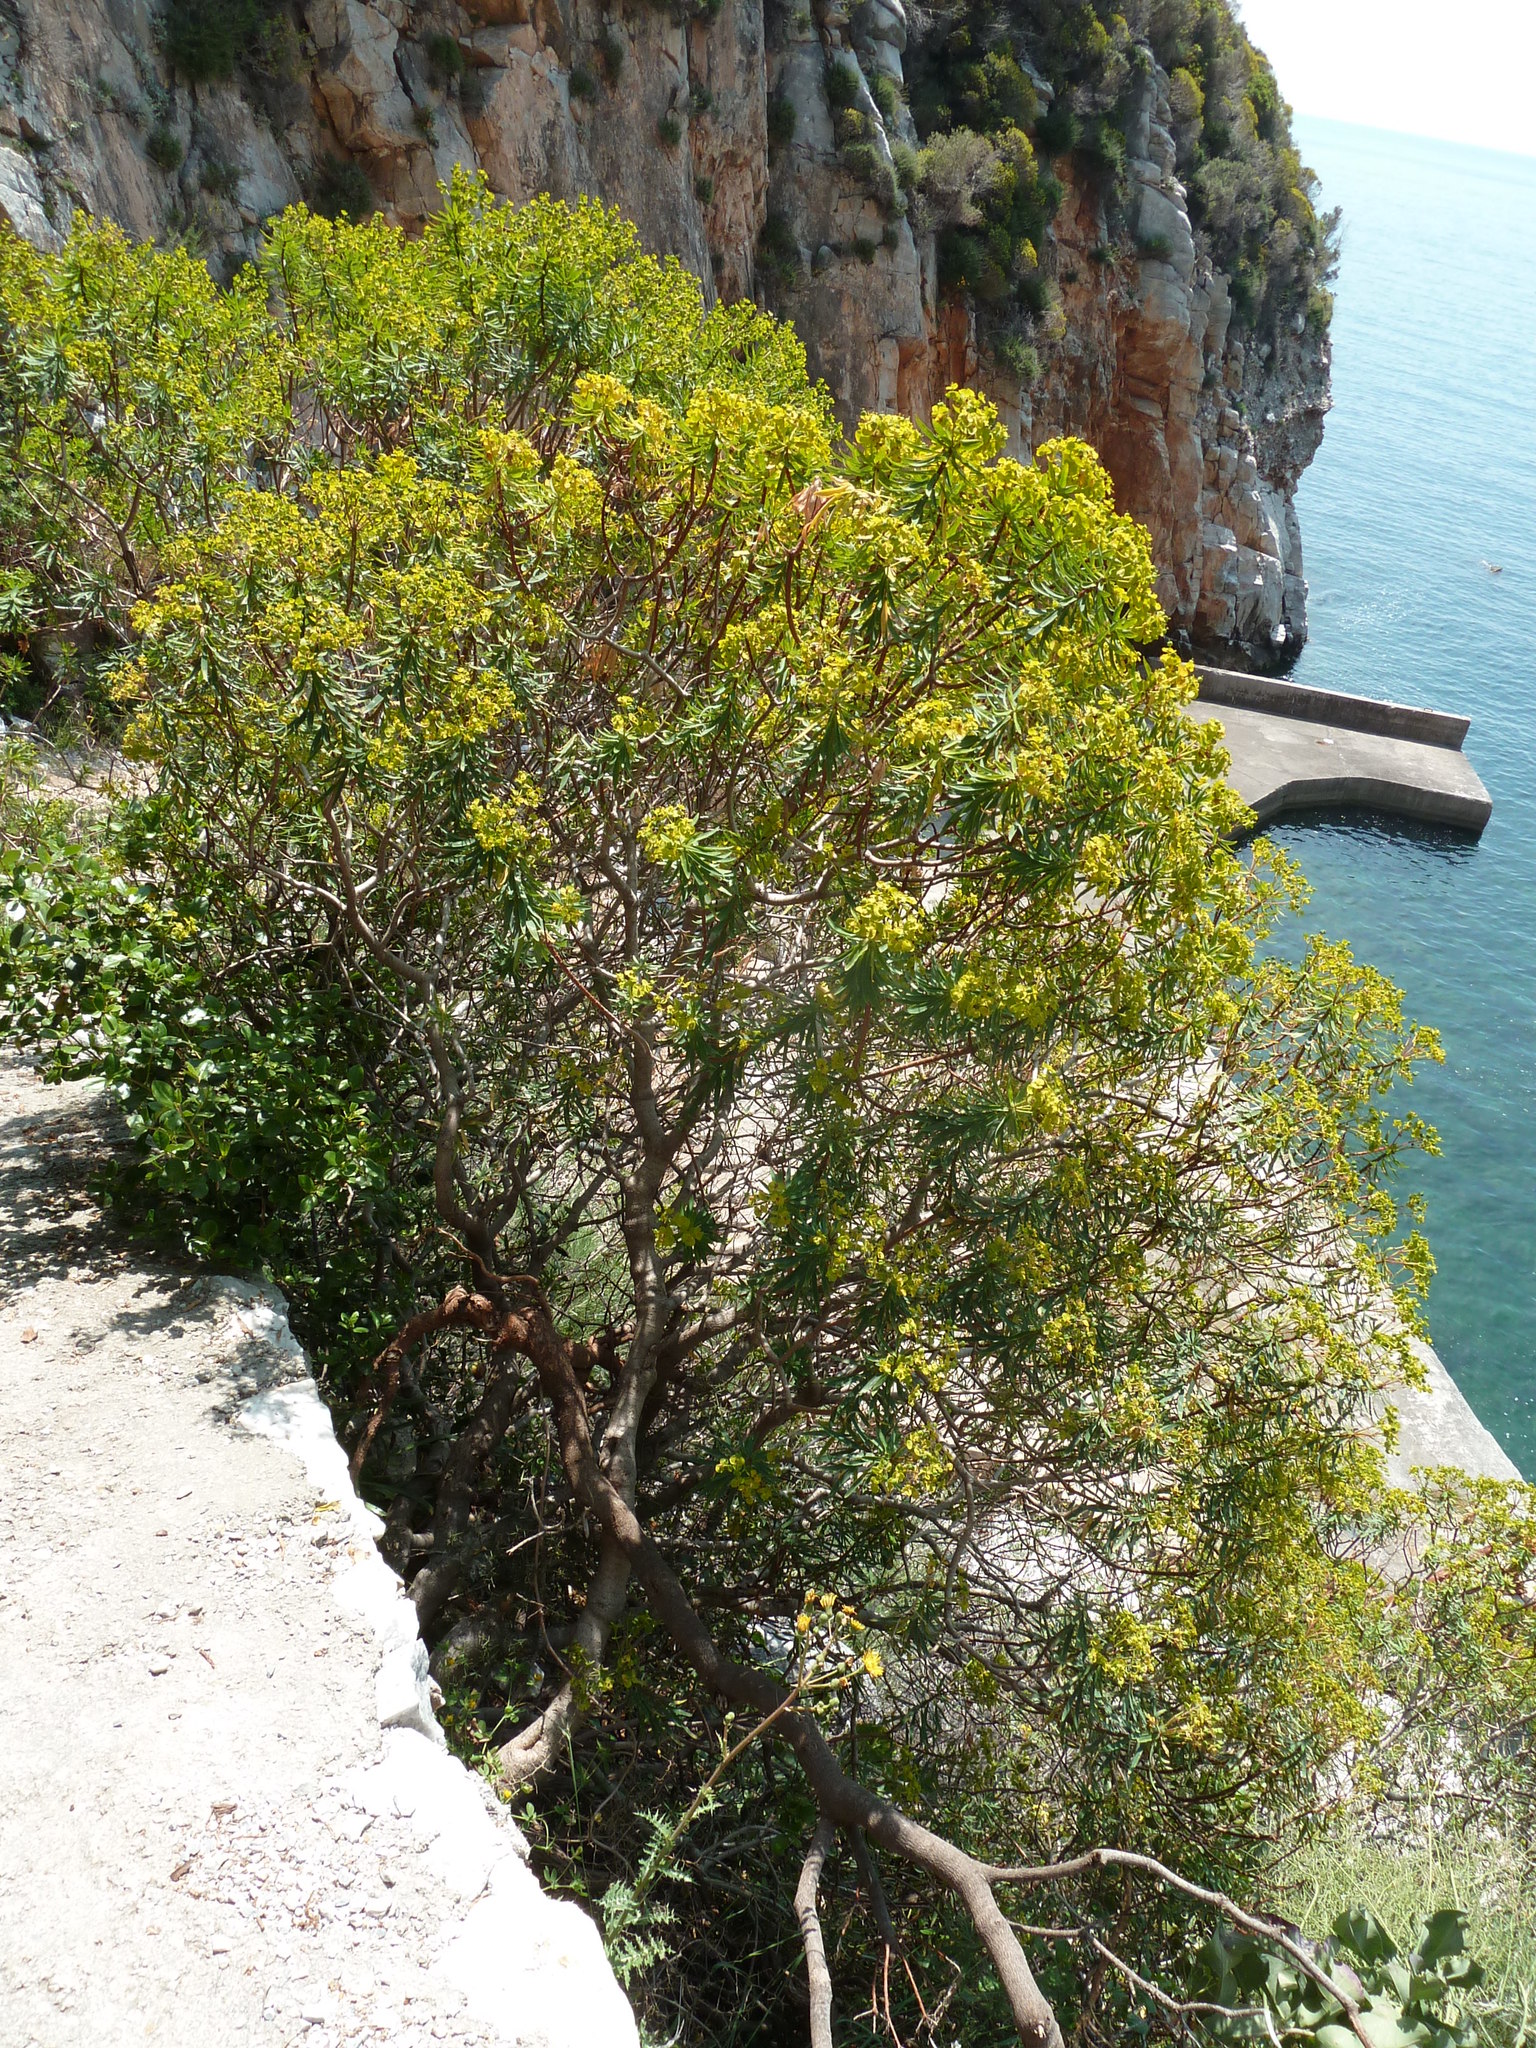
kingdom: Plantae
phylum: Tracheophyta
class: Magnoliopsida
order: Malpighiales
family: Euphorbiaceae
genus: Euphorbia
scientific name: Euphorbia dendroides
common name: Tree spurge
